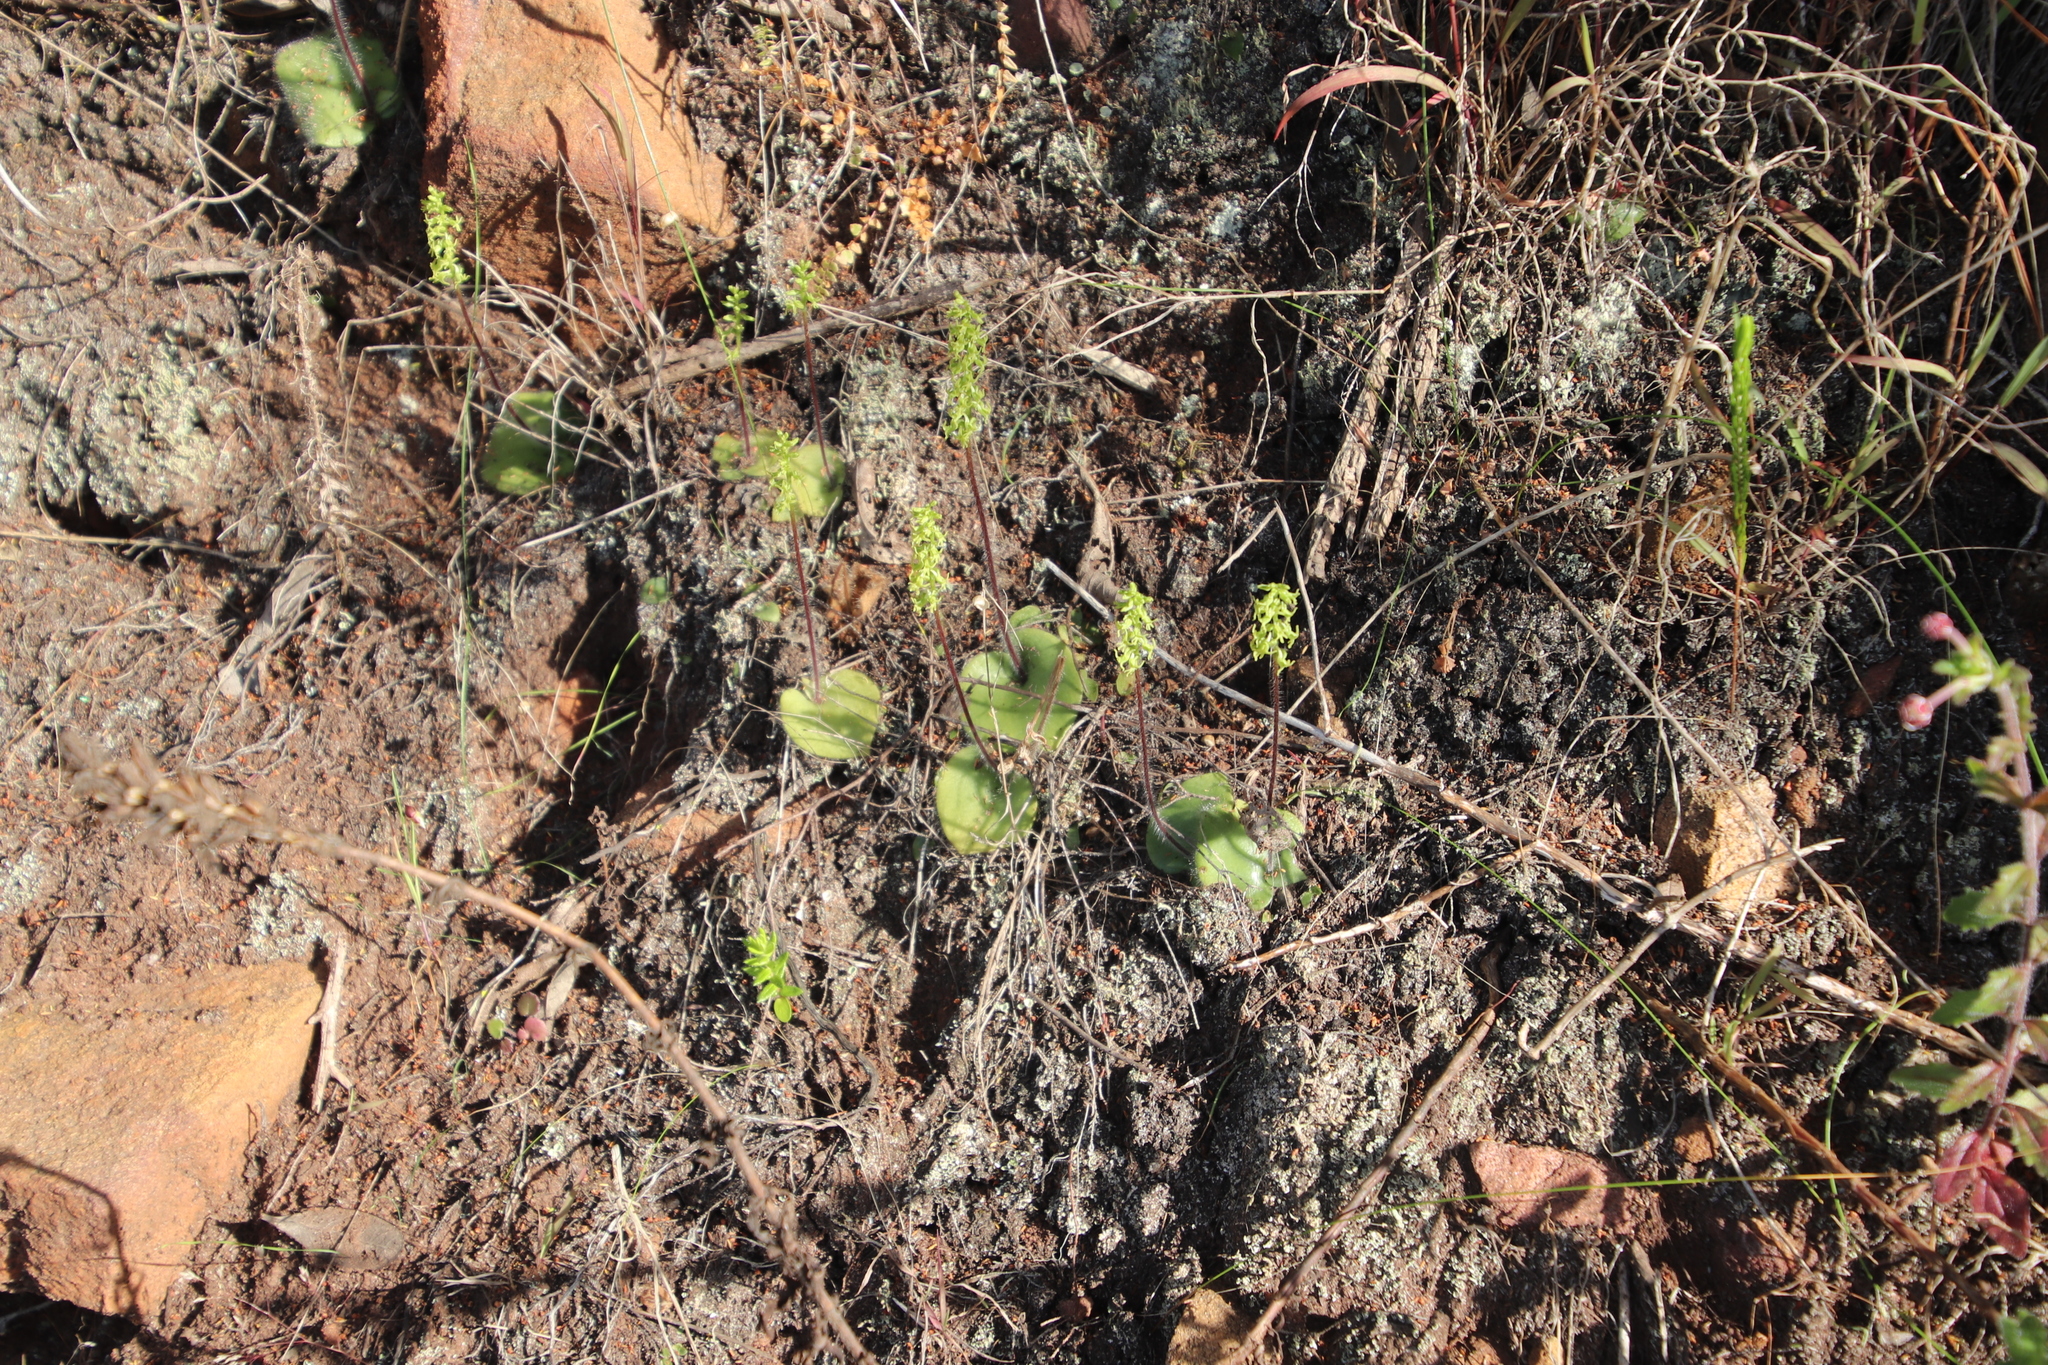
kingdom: Plantae
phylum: Tracheophyta
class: Liliopsida
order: Asparagales
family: Orchidaceae
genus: Holothrix
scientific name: Holothrix villosa
